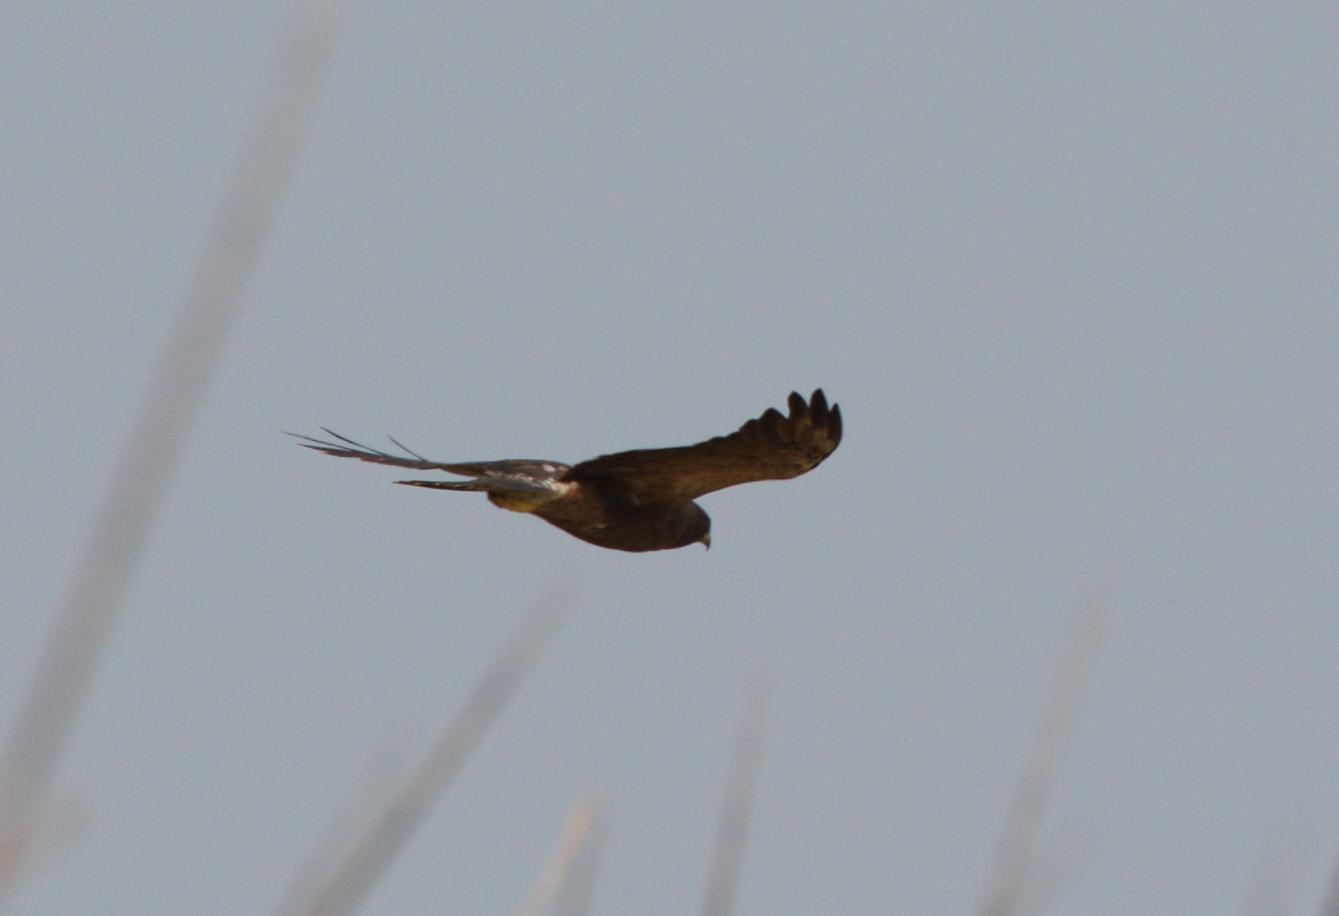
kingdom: Animalia
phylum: Chordata
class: Aves
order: Accipitriformes
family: Accipitridae
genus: Buteo
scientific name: Buteo swainsoni
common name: Swainson's hawk
